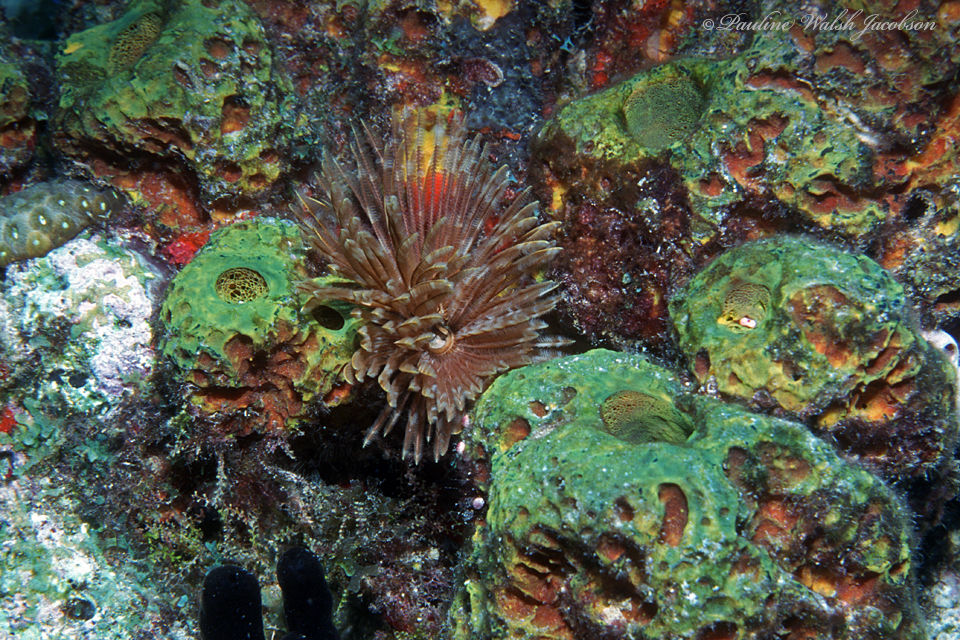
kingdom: Animalia
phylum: Annelida
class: Polychaeta
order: Sabellida
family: Sabellidae
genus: Sabellastarte
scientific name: Sabellastarte magnifica
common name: Giant feather-duster worm
